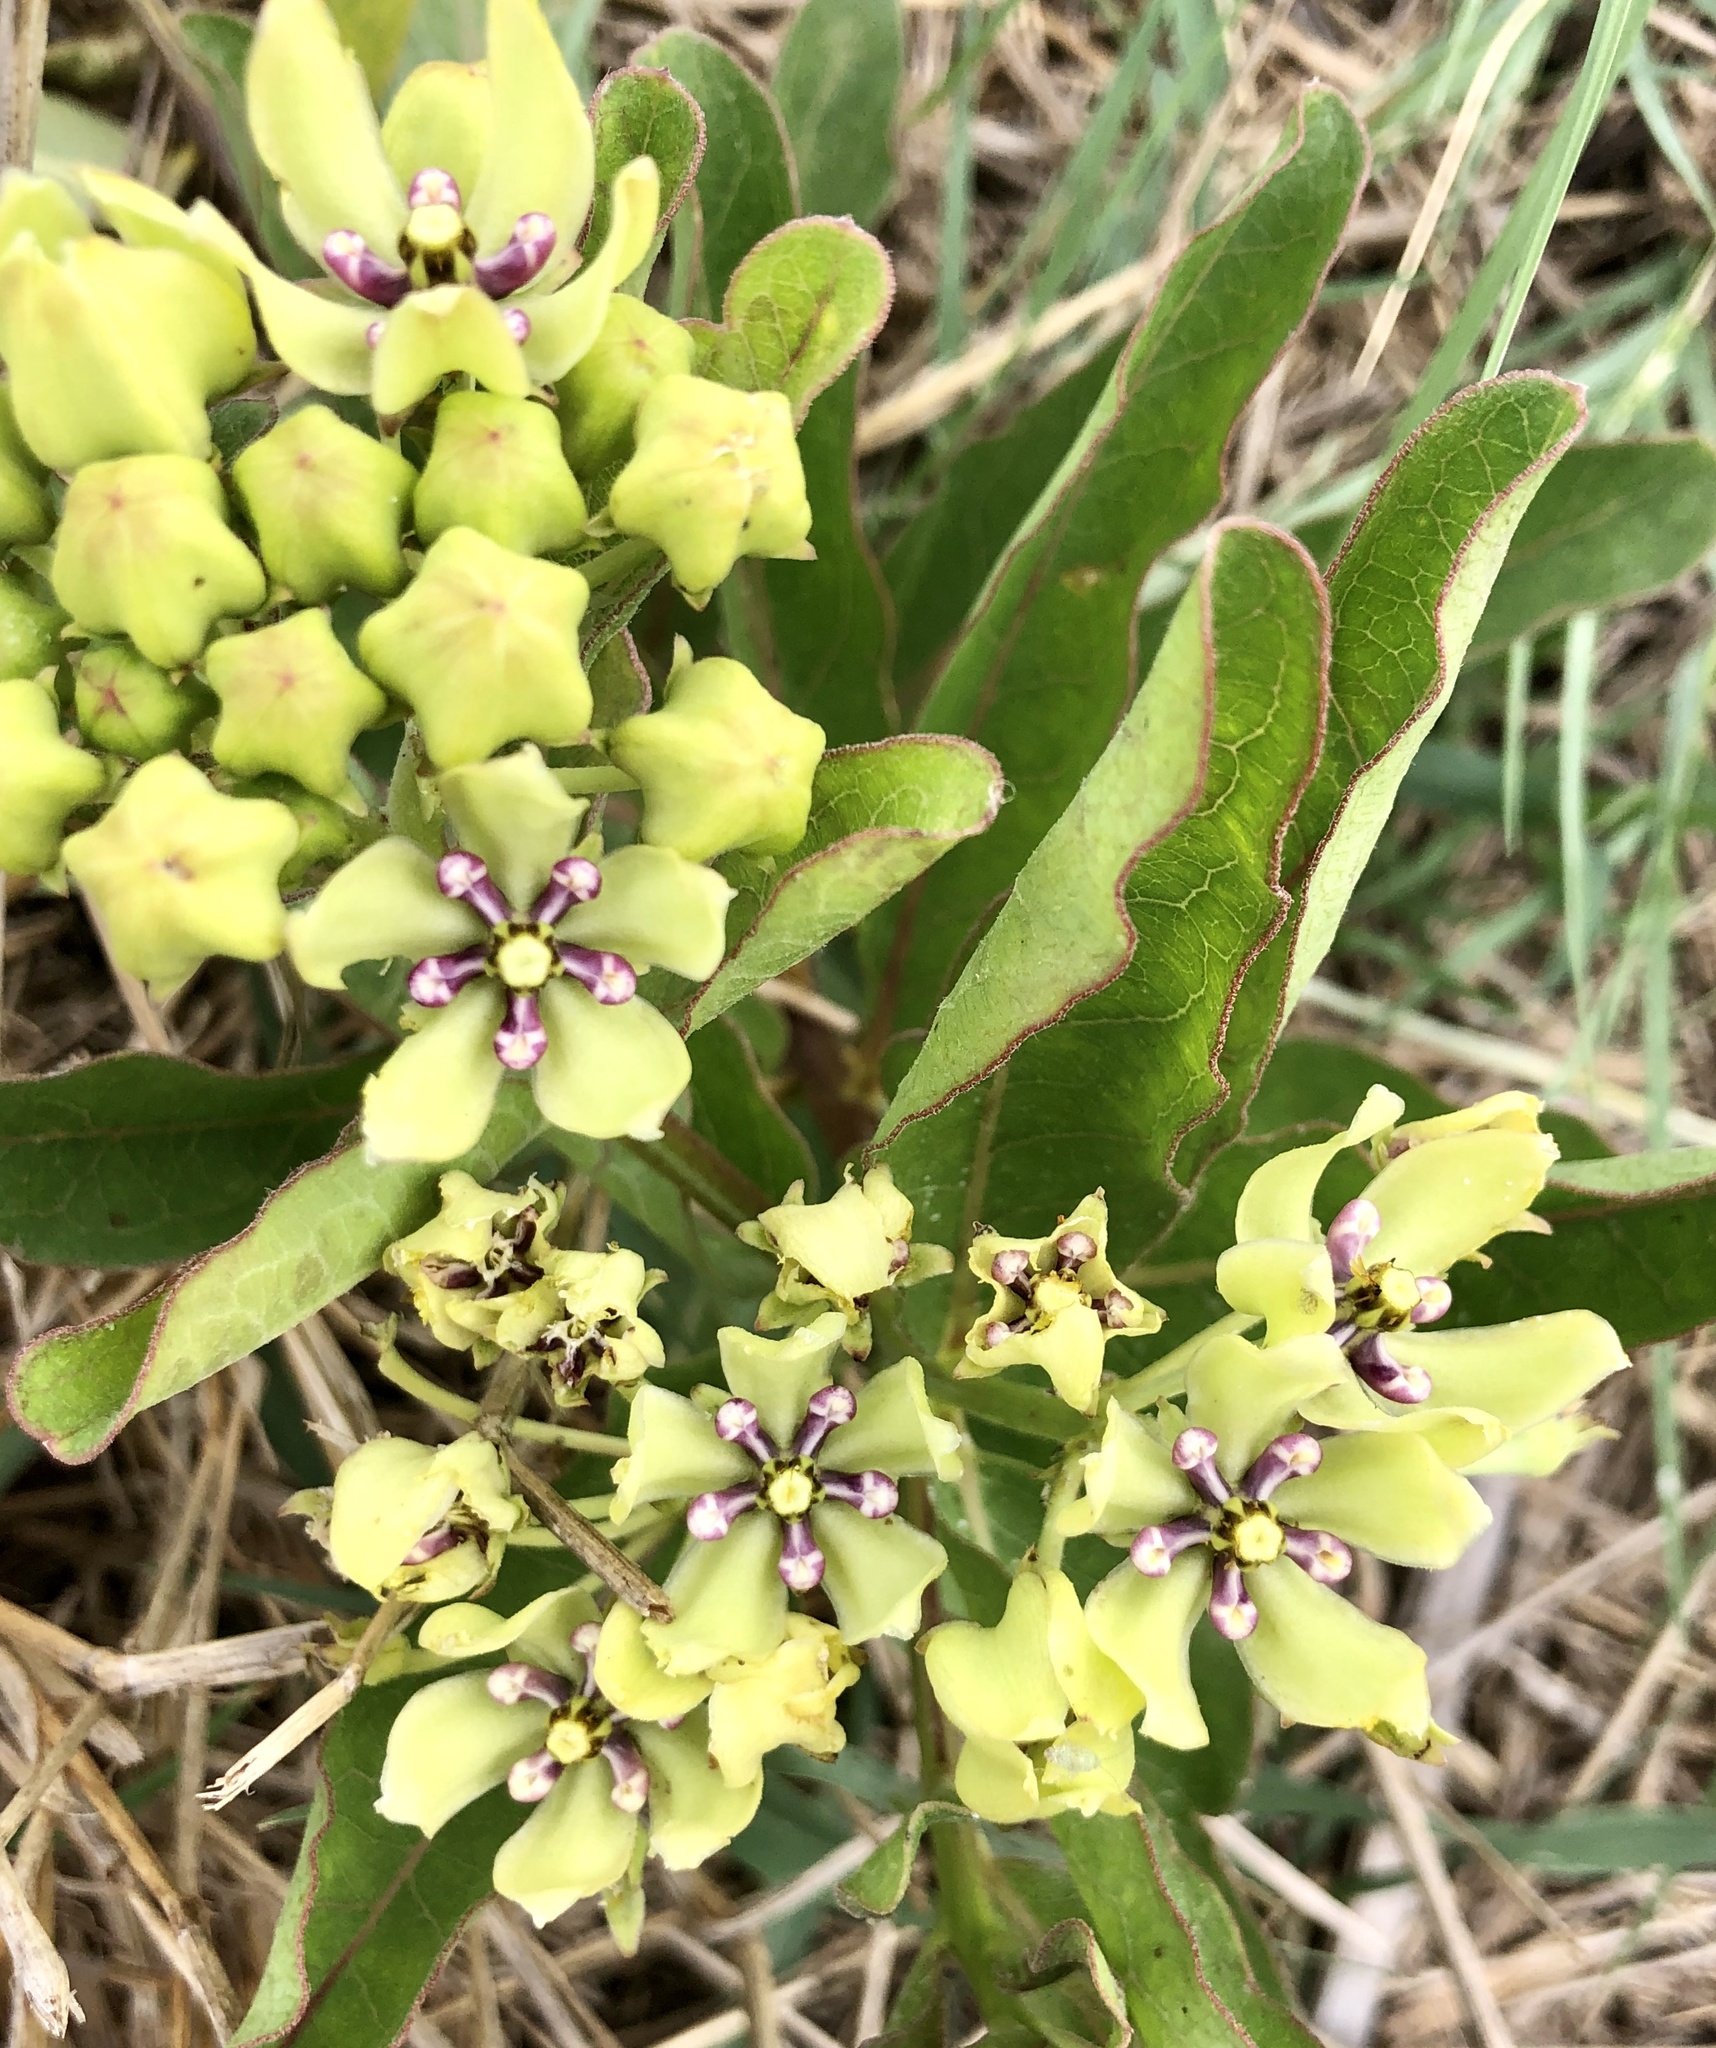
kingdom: Plantae
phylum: Tracheophyta
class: Magnoliopsida
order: Gentianales
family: Apocynaceae
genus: Asclepias
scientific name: Asclepias viridis
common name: Antelope-horns
